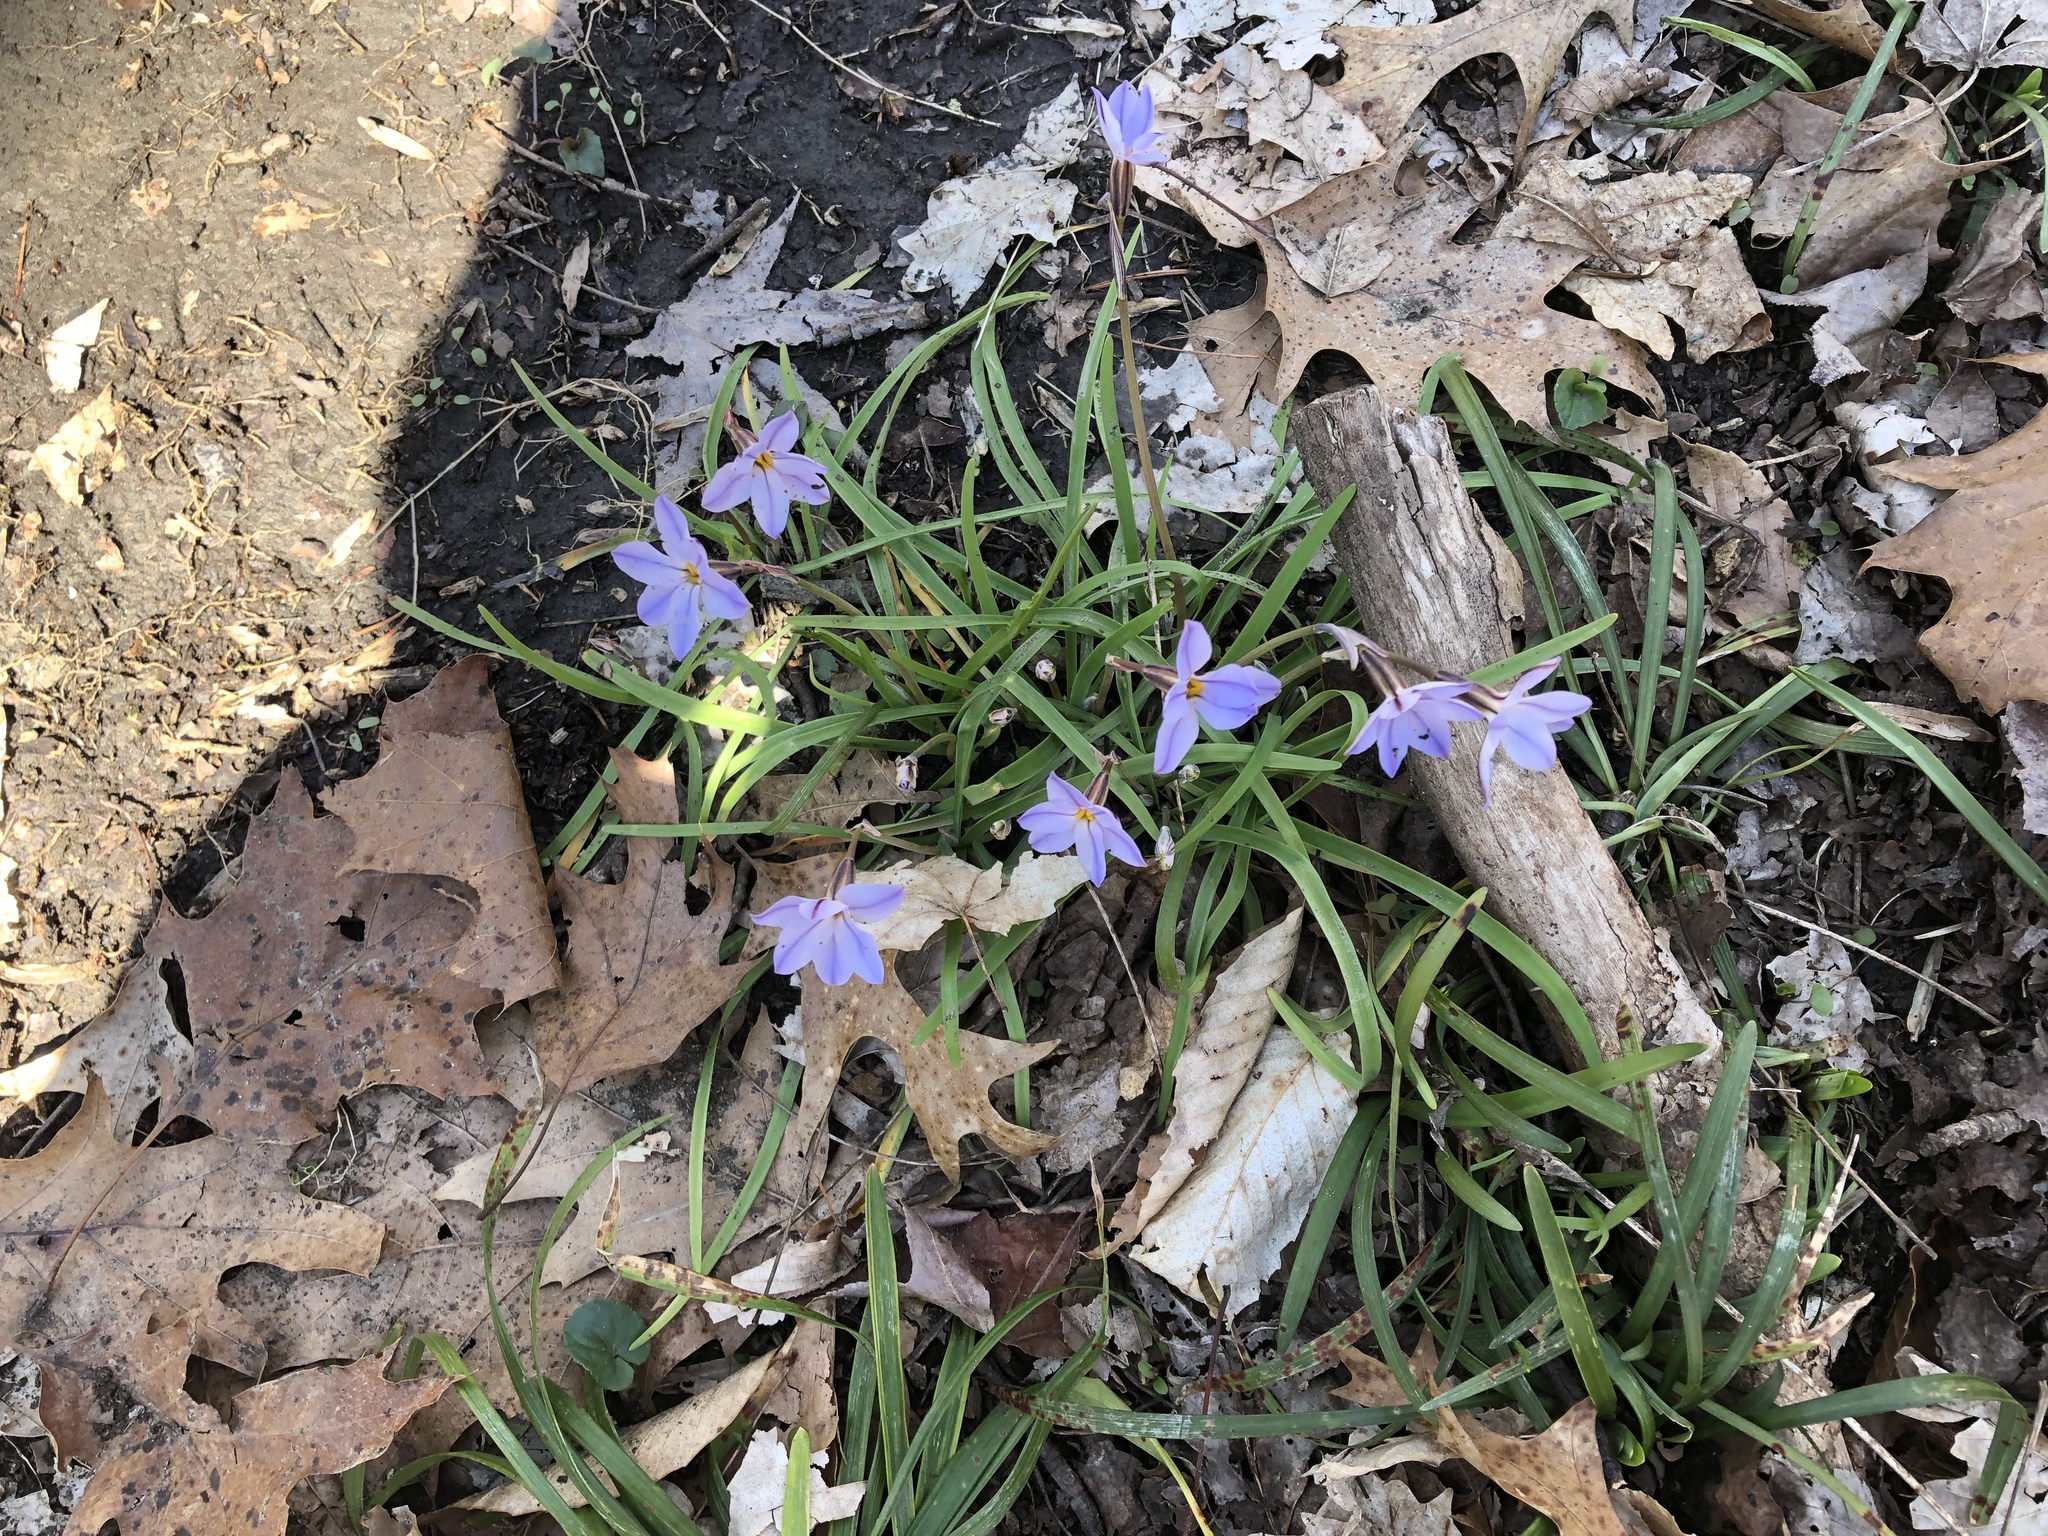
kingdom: Plantae
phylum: Tracheophyta
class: Liliopsida
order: Asparagales
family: Amaryllidaceae
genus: Ipheion
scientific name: Ipheion uniflorum
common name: Spring starflower
